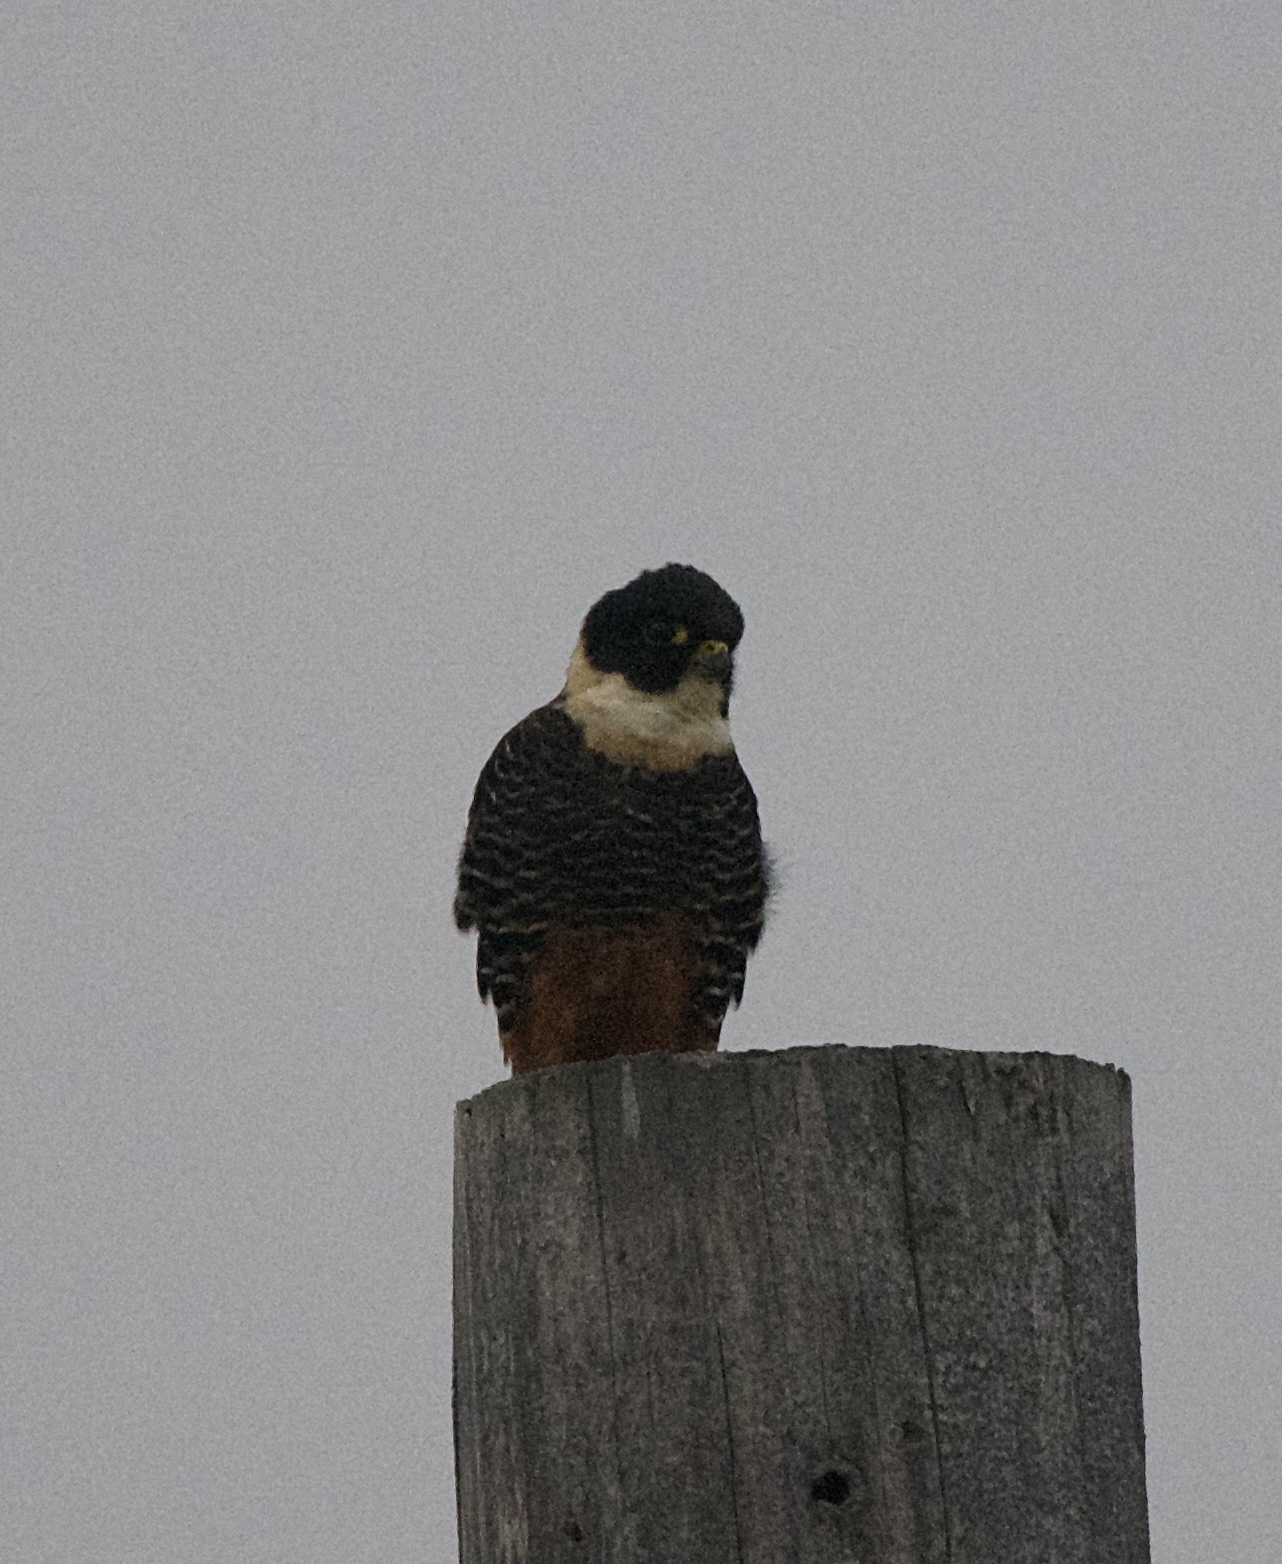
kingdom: Animalia
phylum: Chordata
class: Aves
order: Falconiformes
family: Falconidae
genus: Falco
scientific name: Falco rufigularis
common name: Bat falcon
